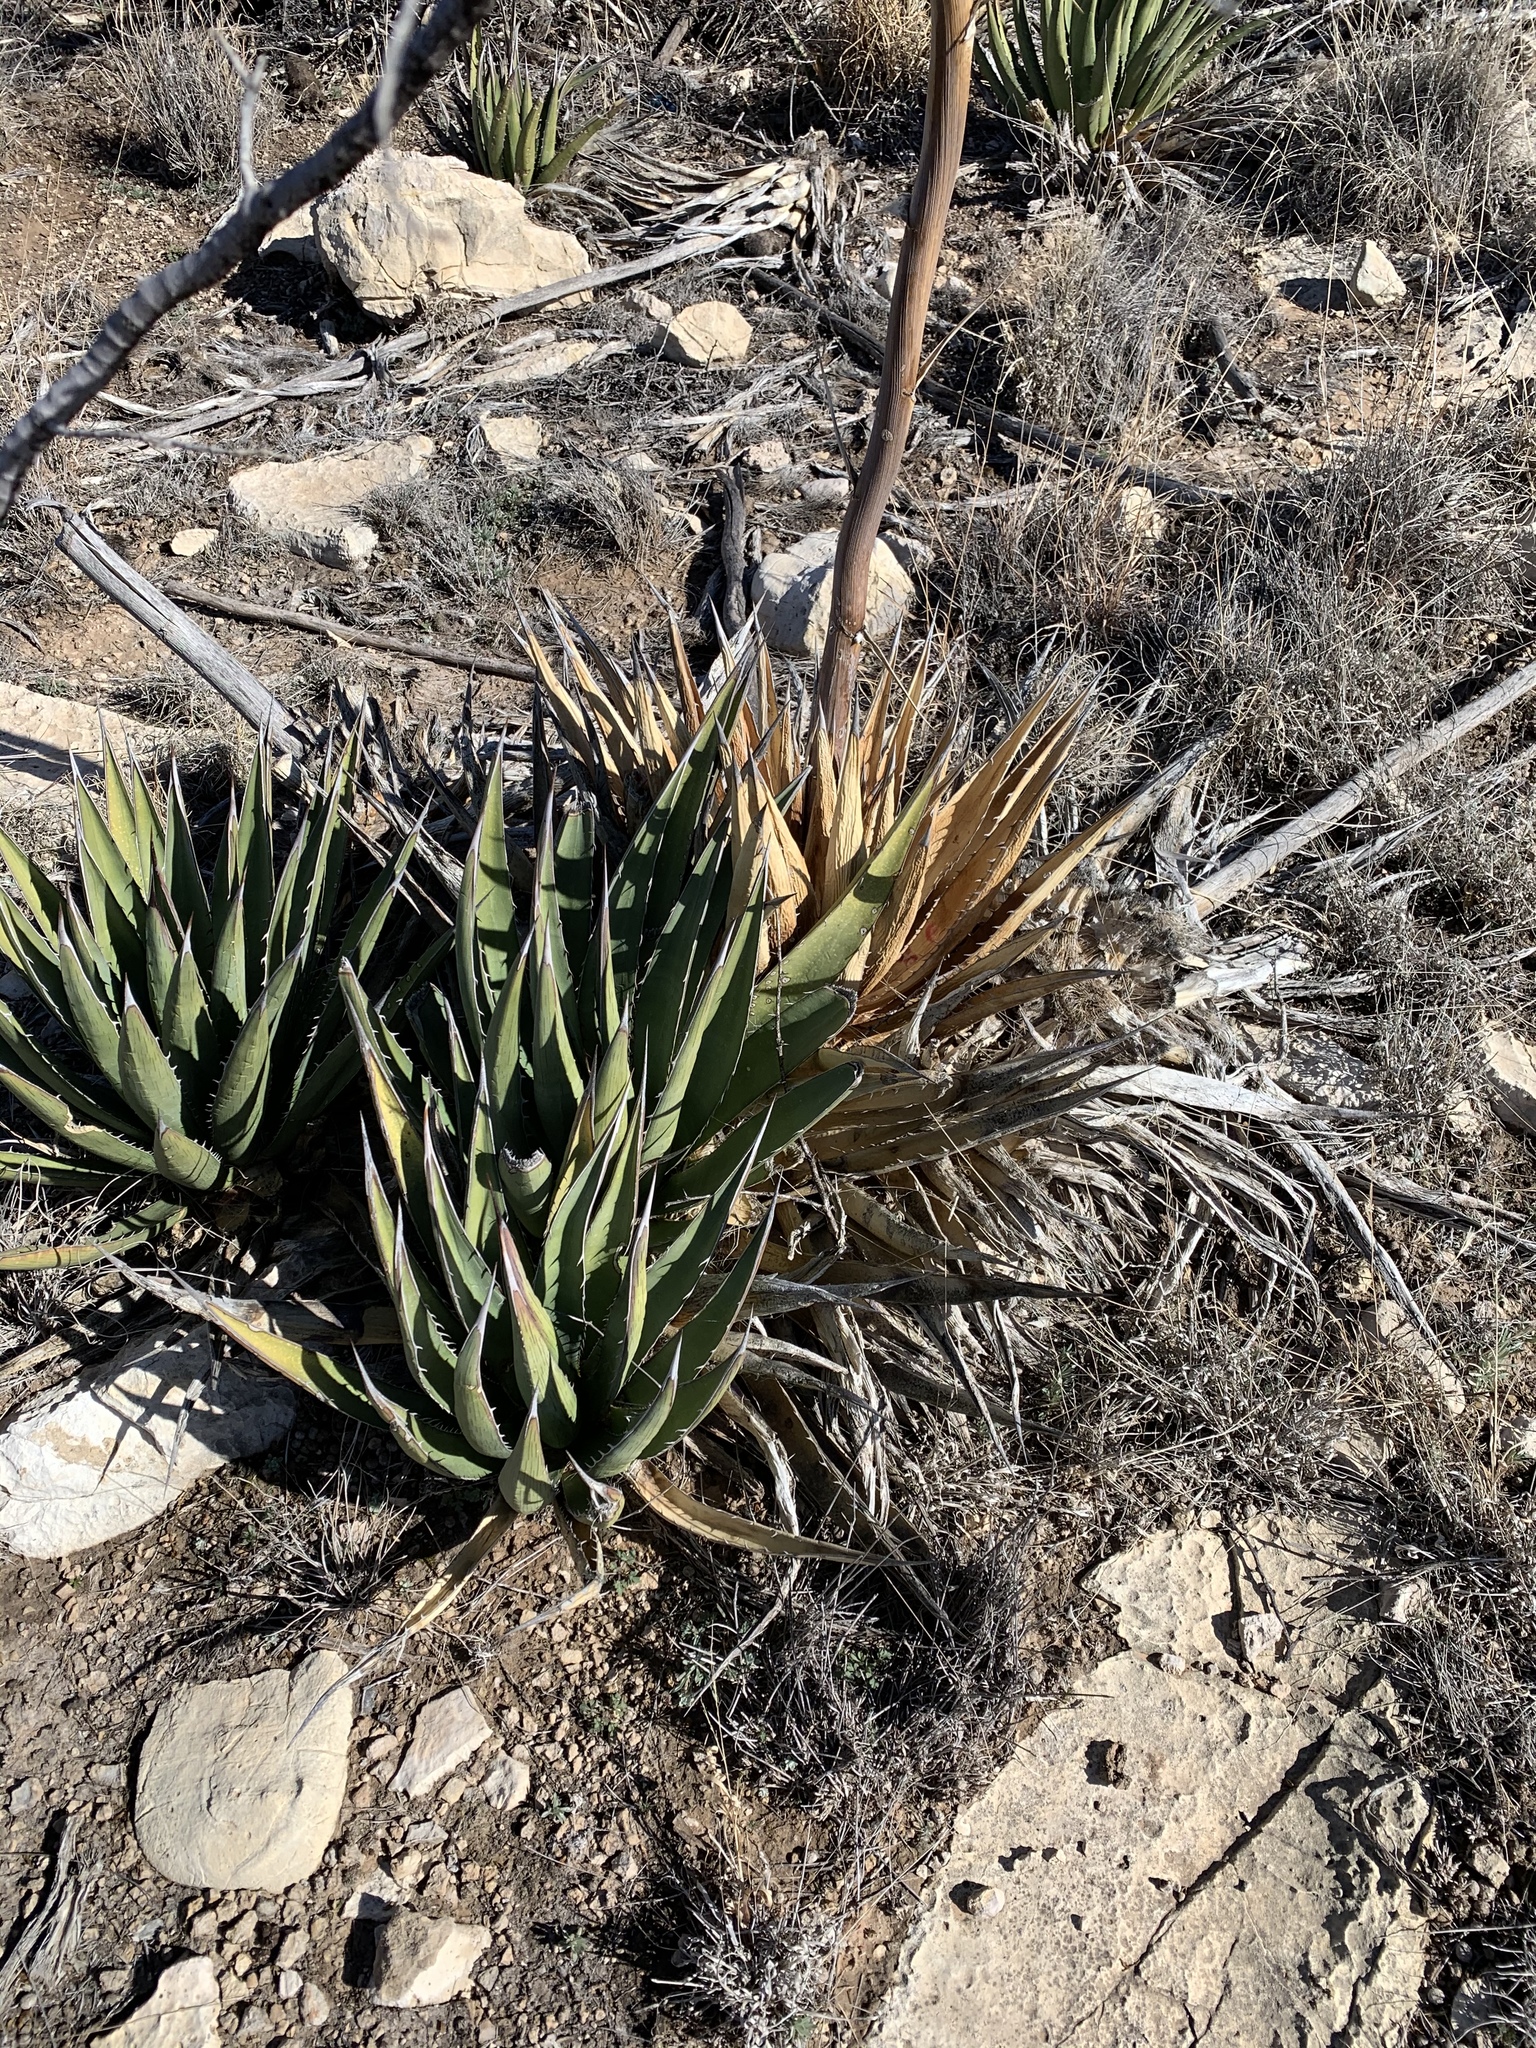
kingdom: Plantae
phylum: Tracheophyta
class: Liliopsida
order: Asparagales
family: Asparagaceae
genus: Agave
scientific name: Agave lechuguilla
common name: Lecheguilla agave
